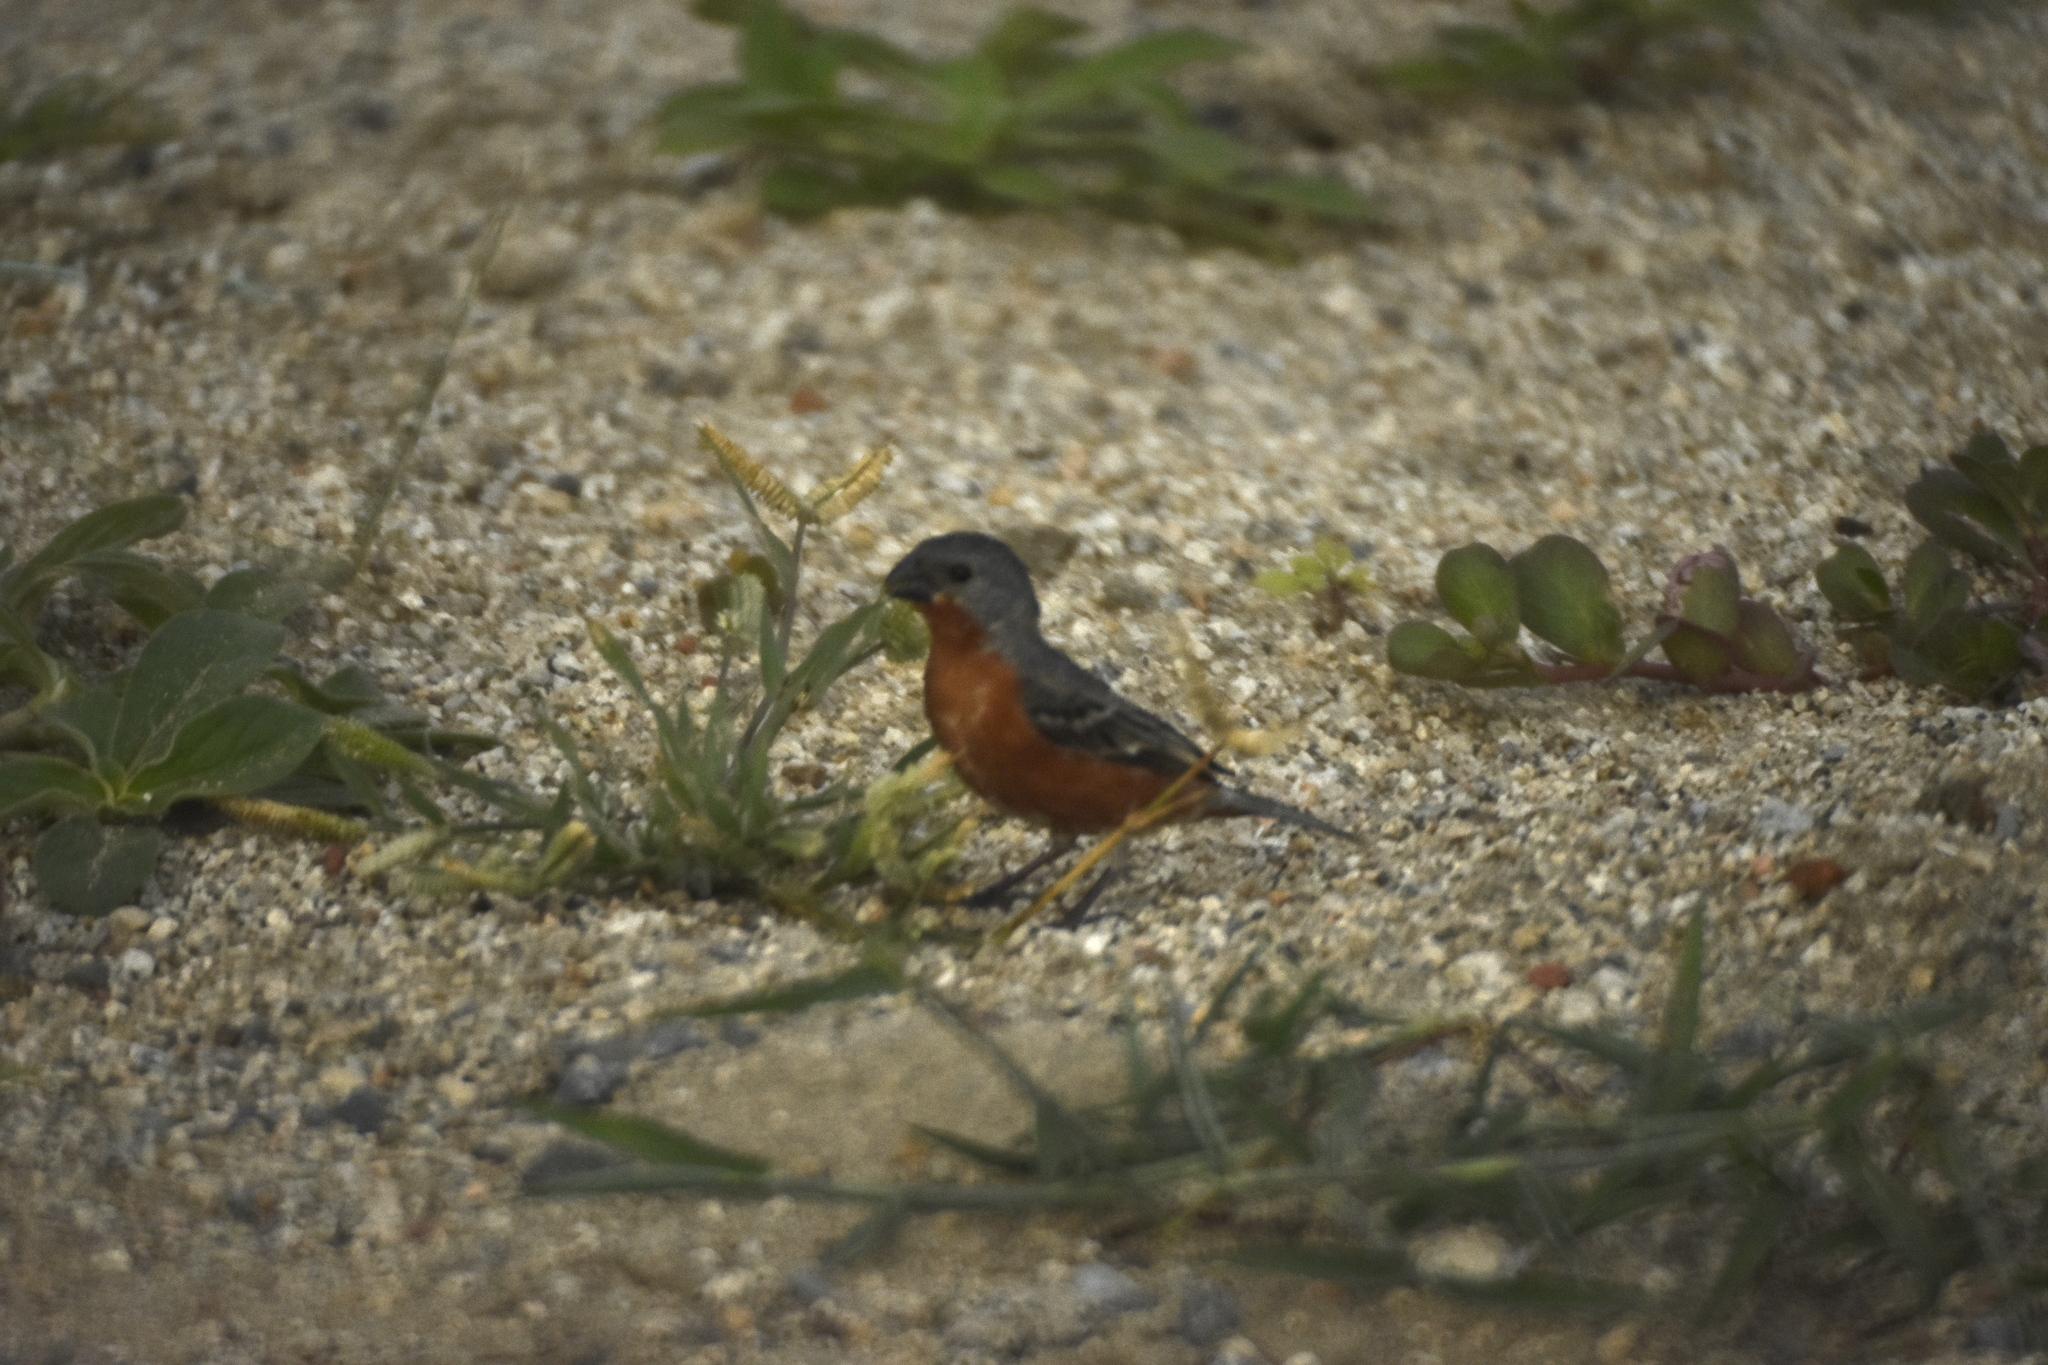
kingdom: Animalia
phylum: Chordata
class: Aves
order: Passeriformes
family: Thraupidae
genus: Sporophila
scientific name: Sporophila minuta
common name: Ruddy-breasted seedeater
